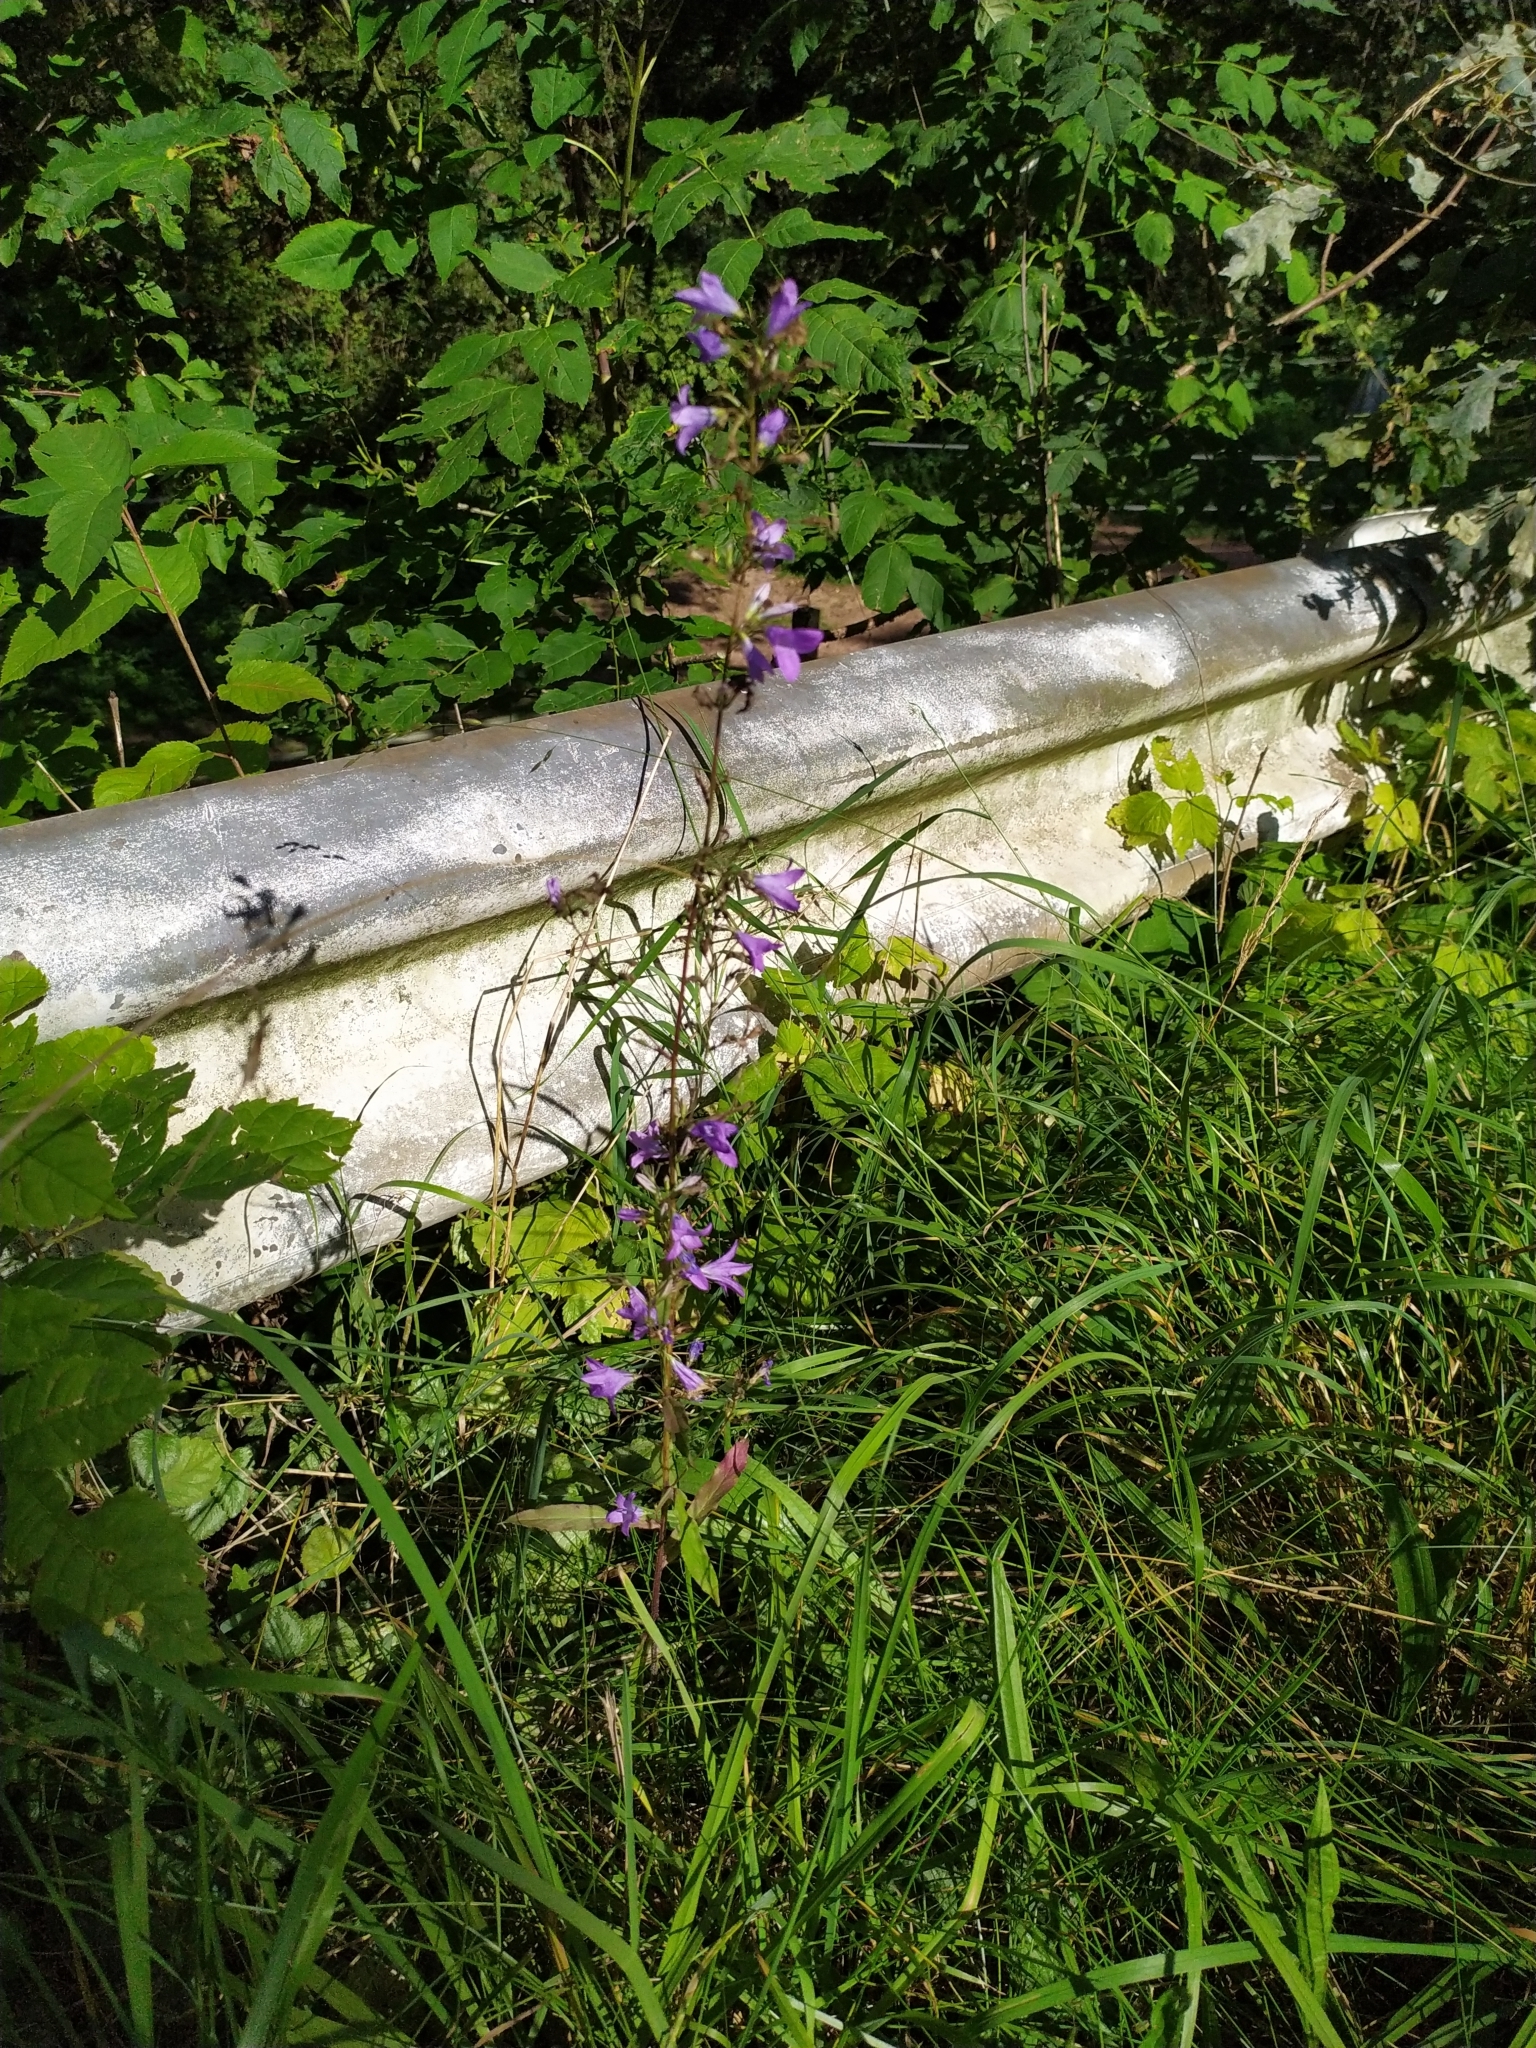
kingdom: Plantae
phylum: Tracheophyta
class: Magnoliopsida
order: Asterales
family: Campanulaceae
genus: Campanula
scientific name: Campanula rapunculus
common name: Rampion bellflower
